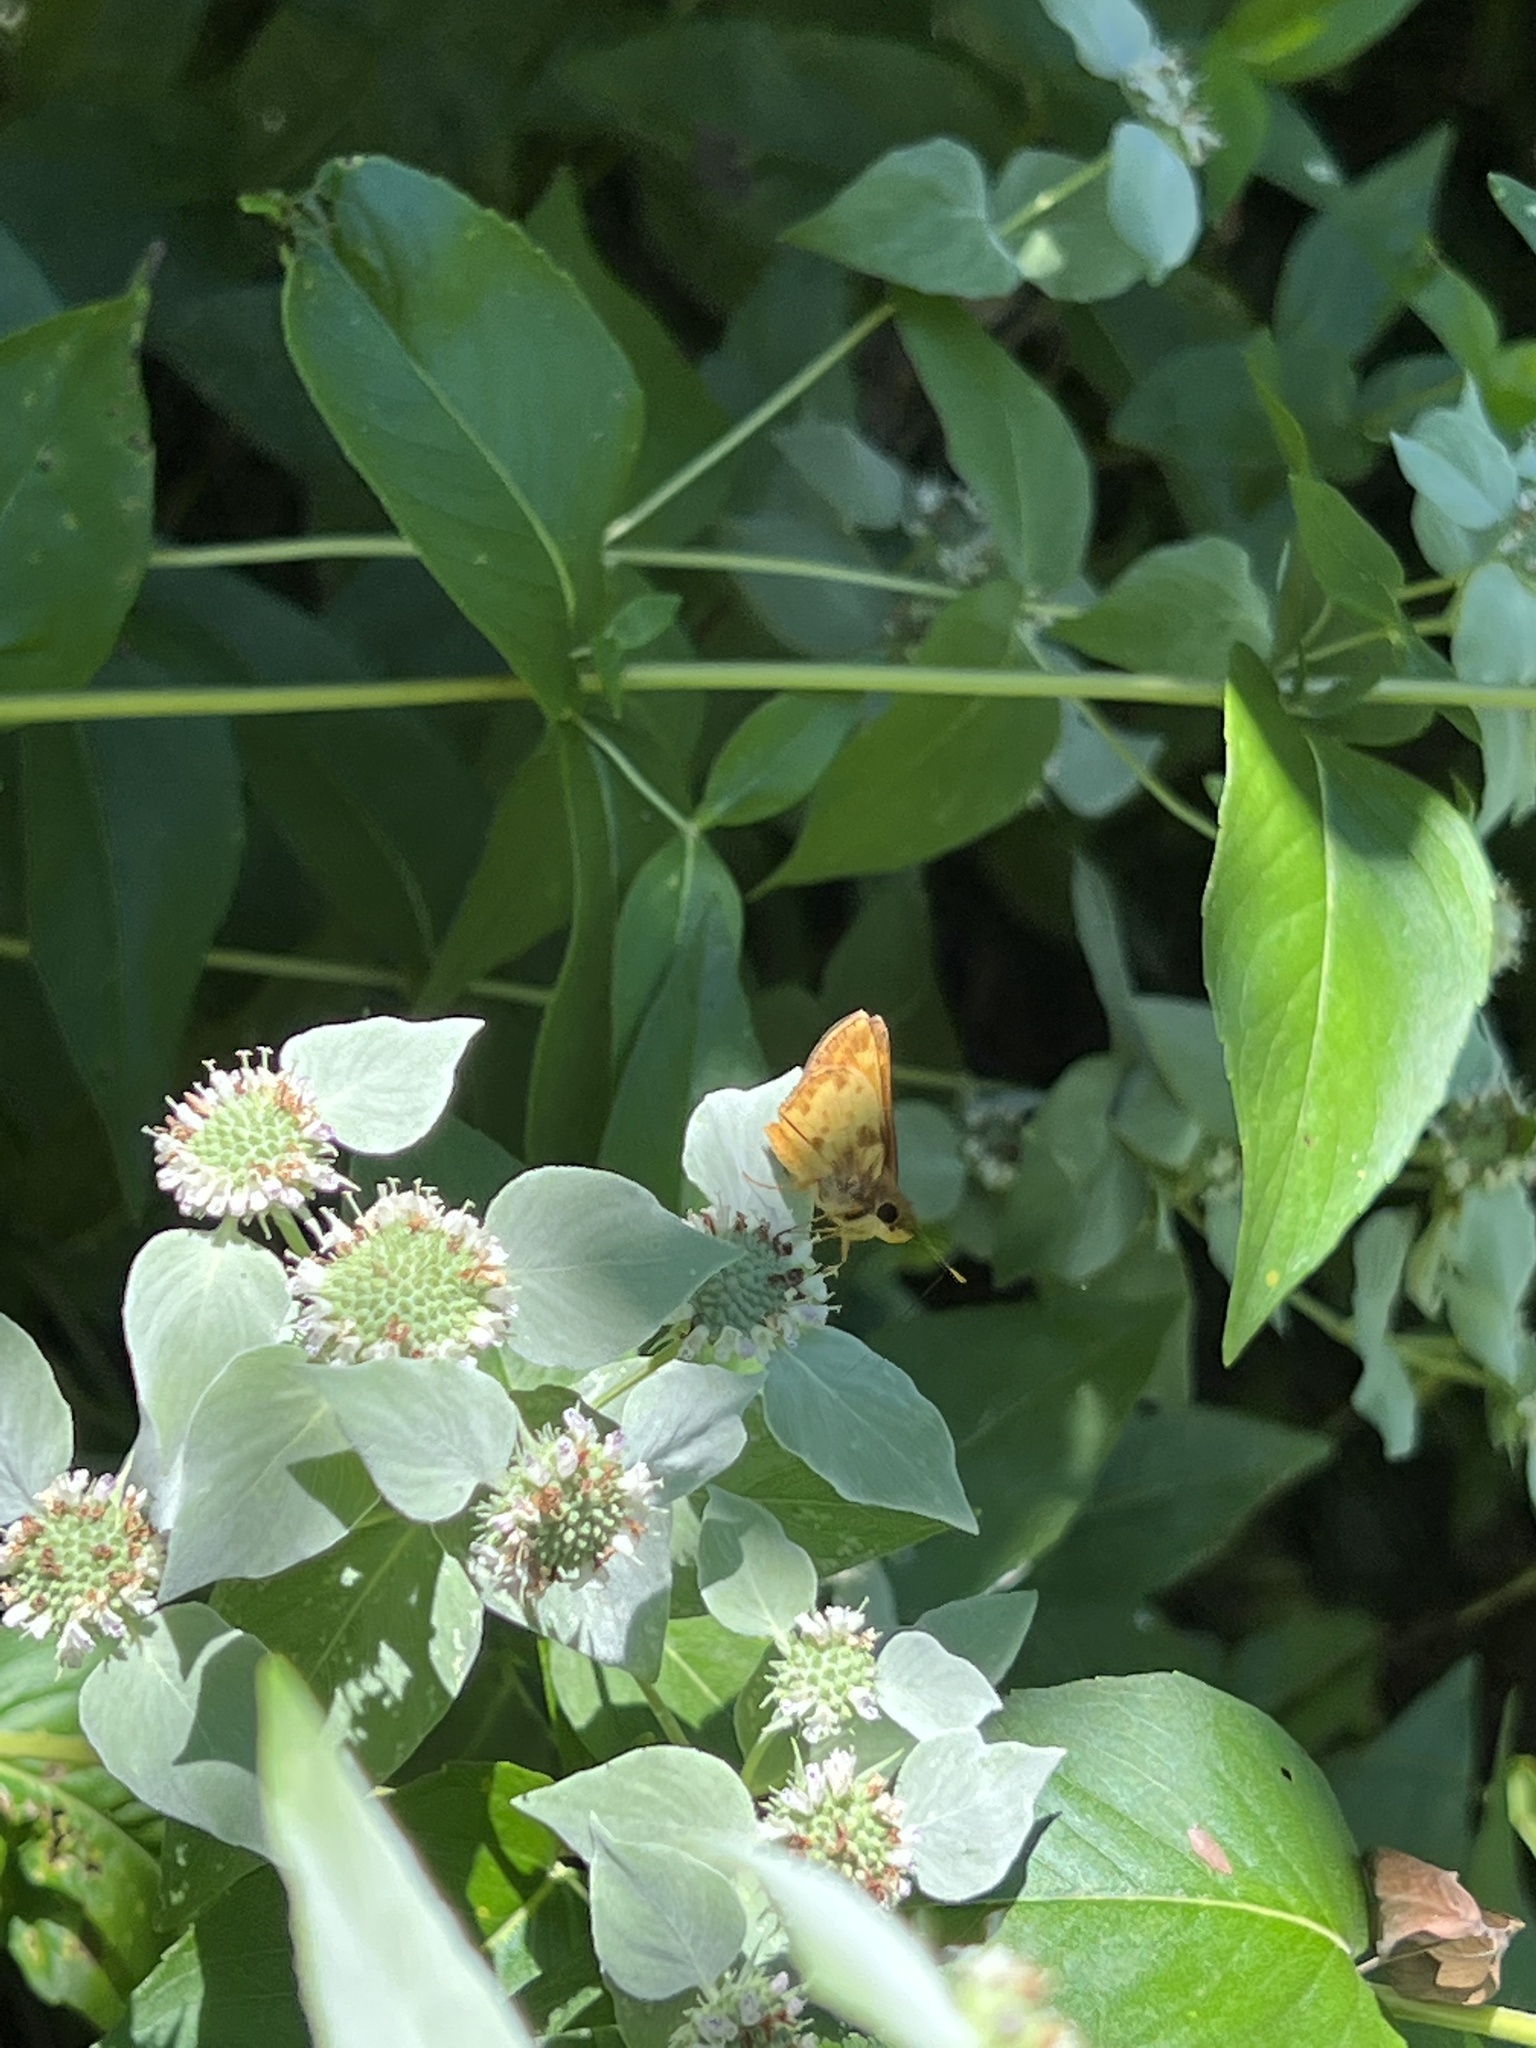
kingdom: Animalia
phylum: Arthropoda
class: Insecta
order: Lepidoptera
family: Hesperiidae
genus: Lon
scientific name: Lon zabulon
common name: Zabulon skipper
